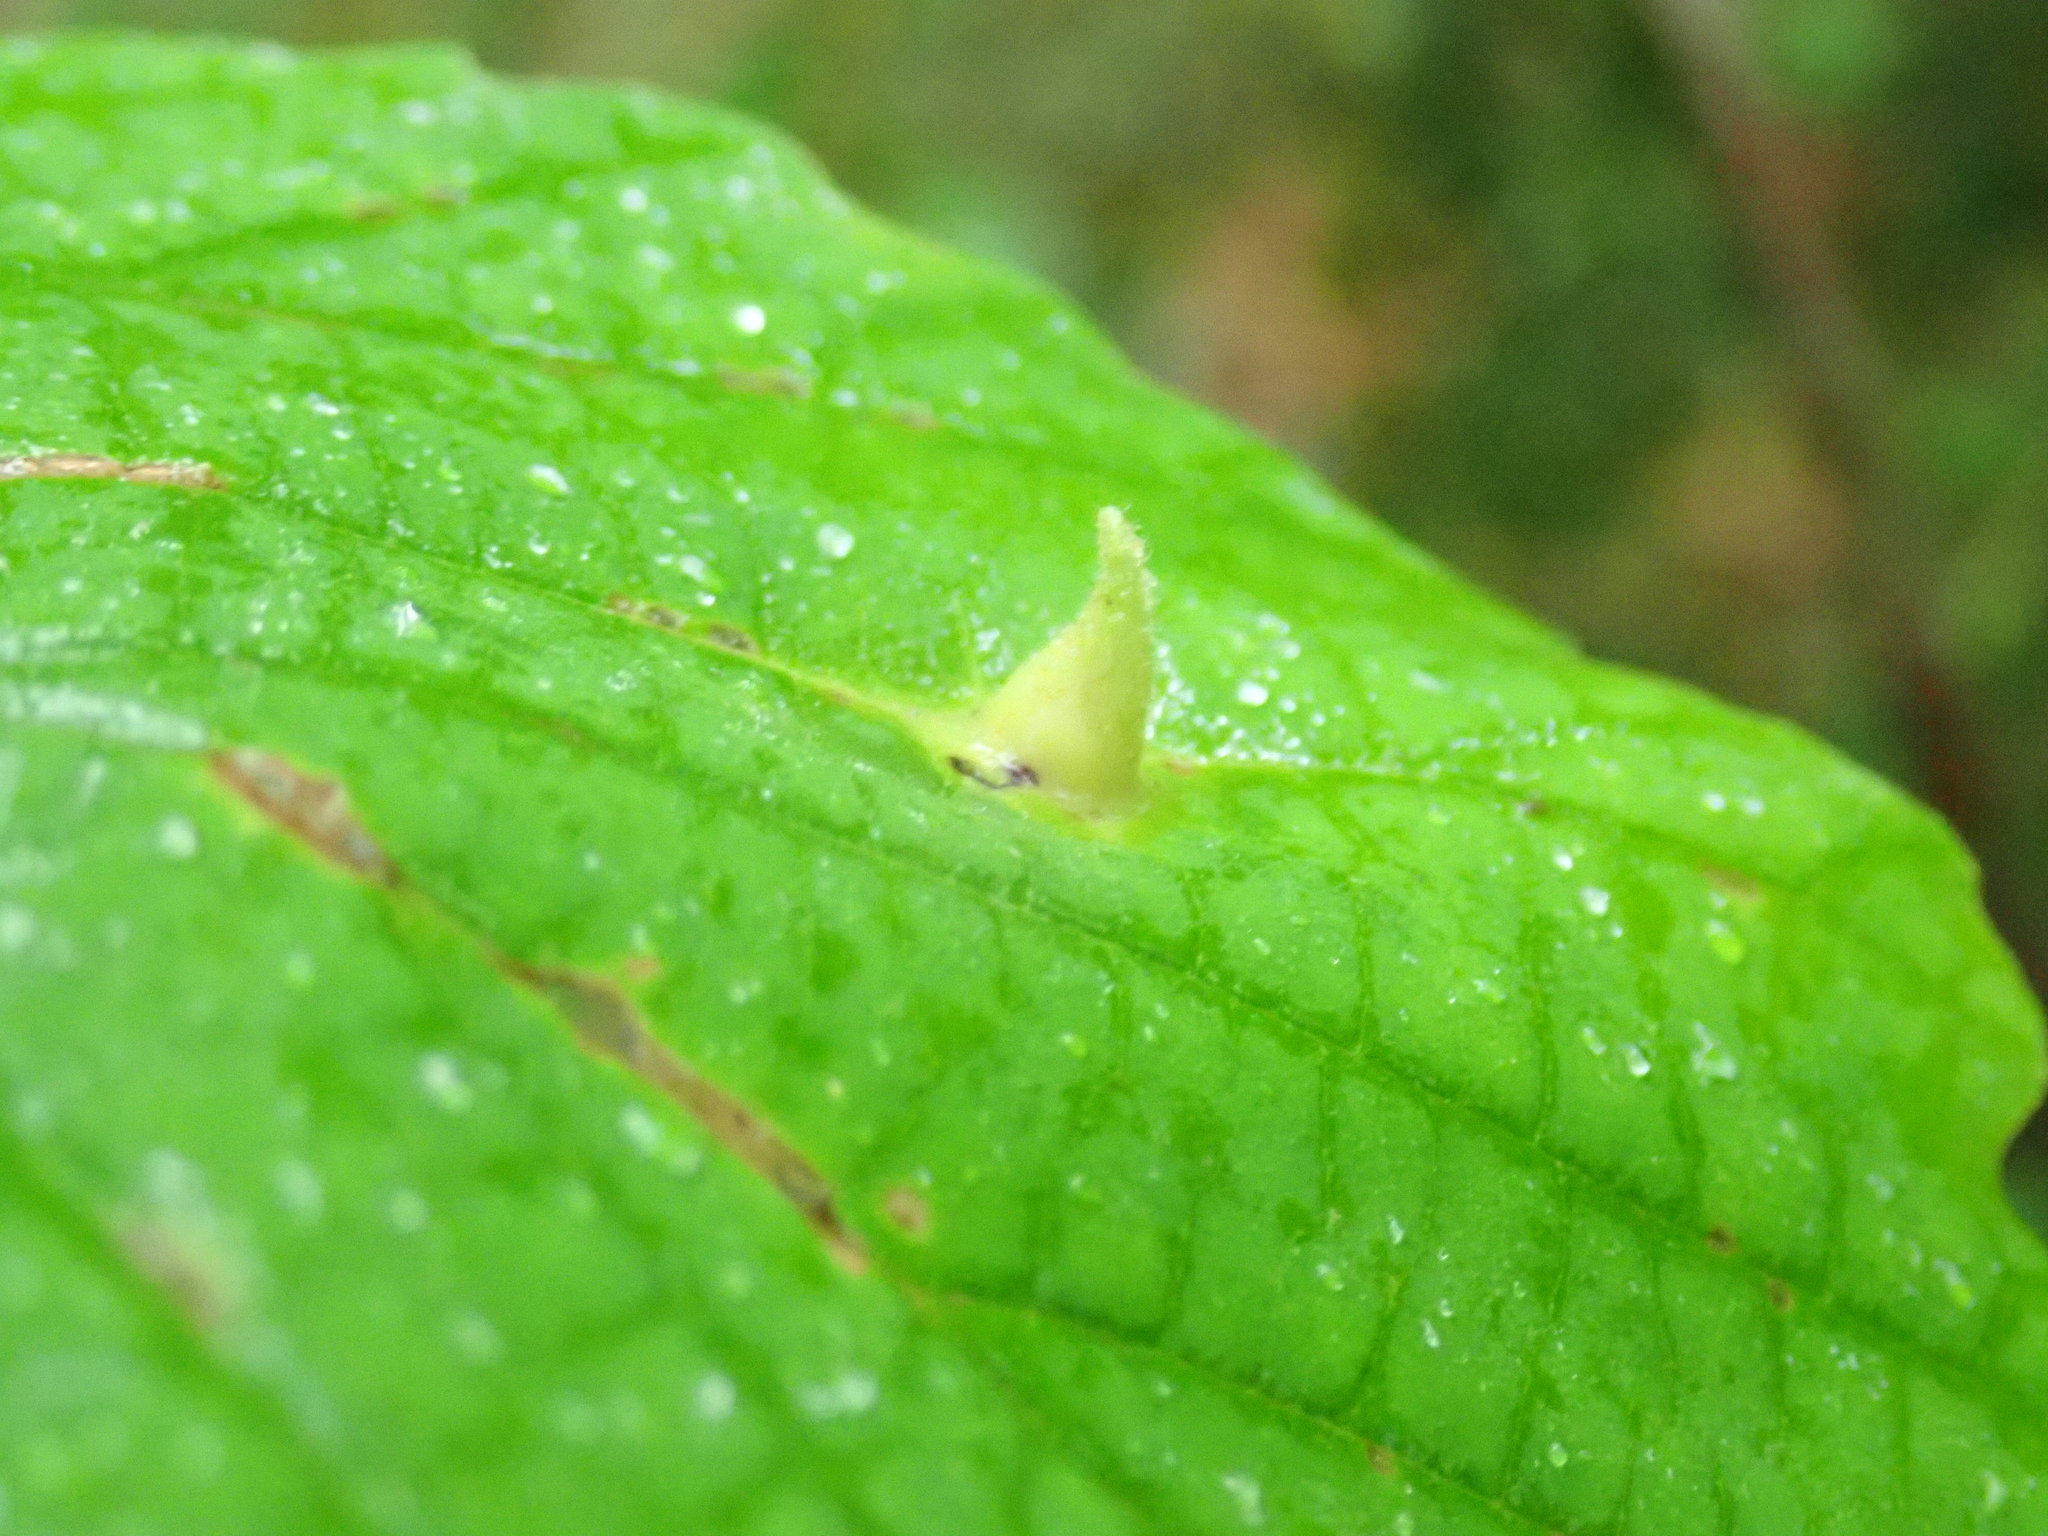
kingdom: Animalia
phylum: Arthropoda
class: Insecta
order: Hemiptera
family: Aphididae
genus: Hormaphis
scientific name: Hormaphis hamamelidis
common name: Witch-hazel cone gall aphid
